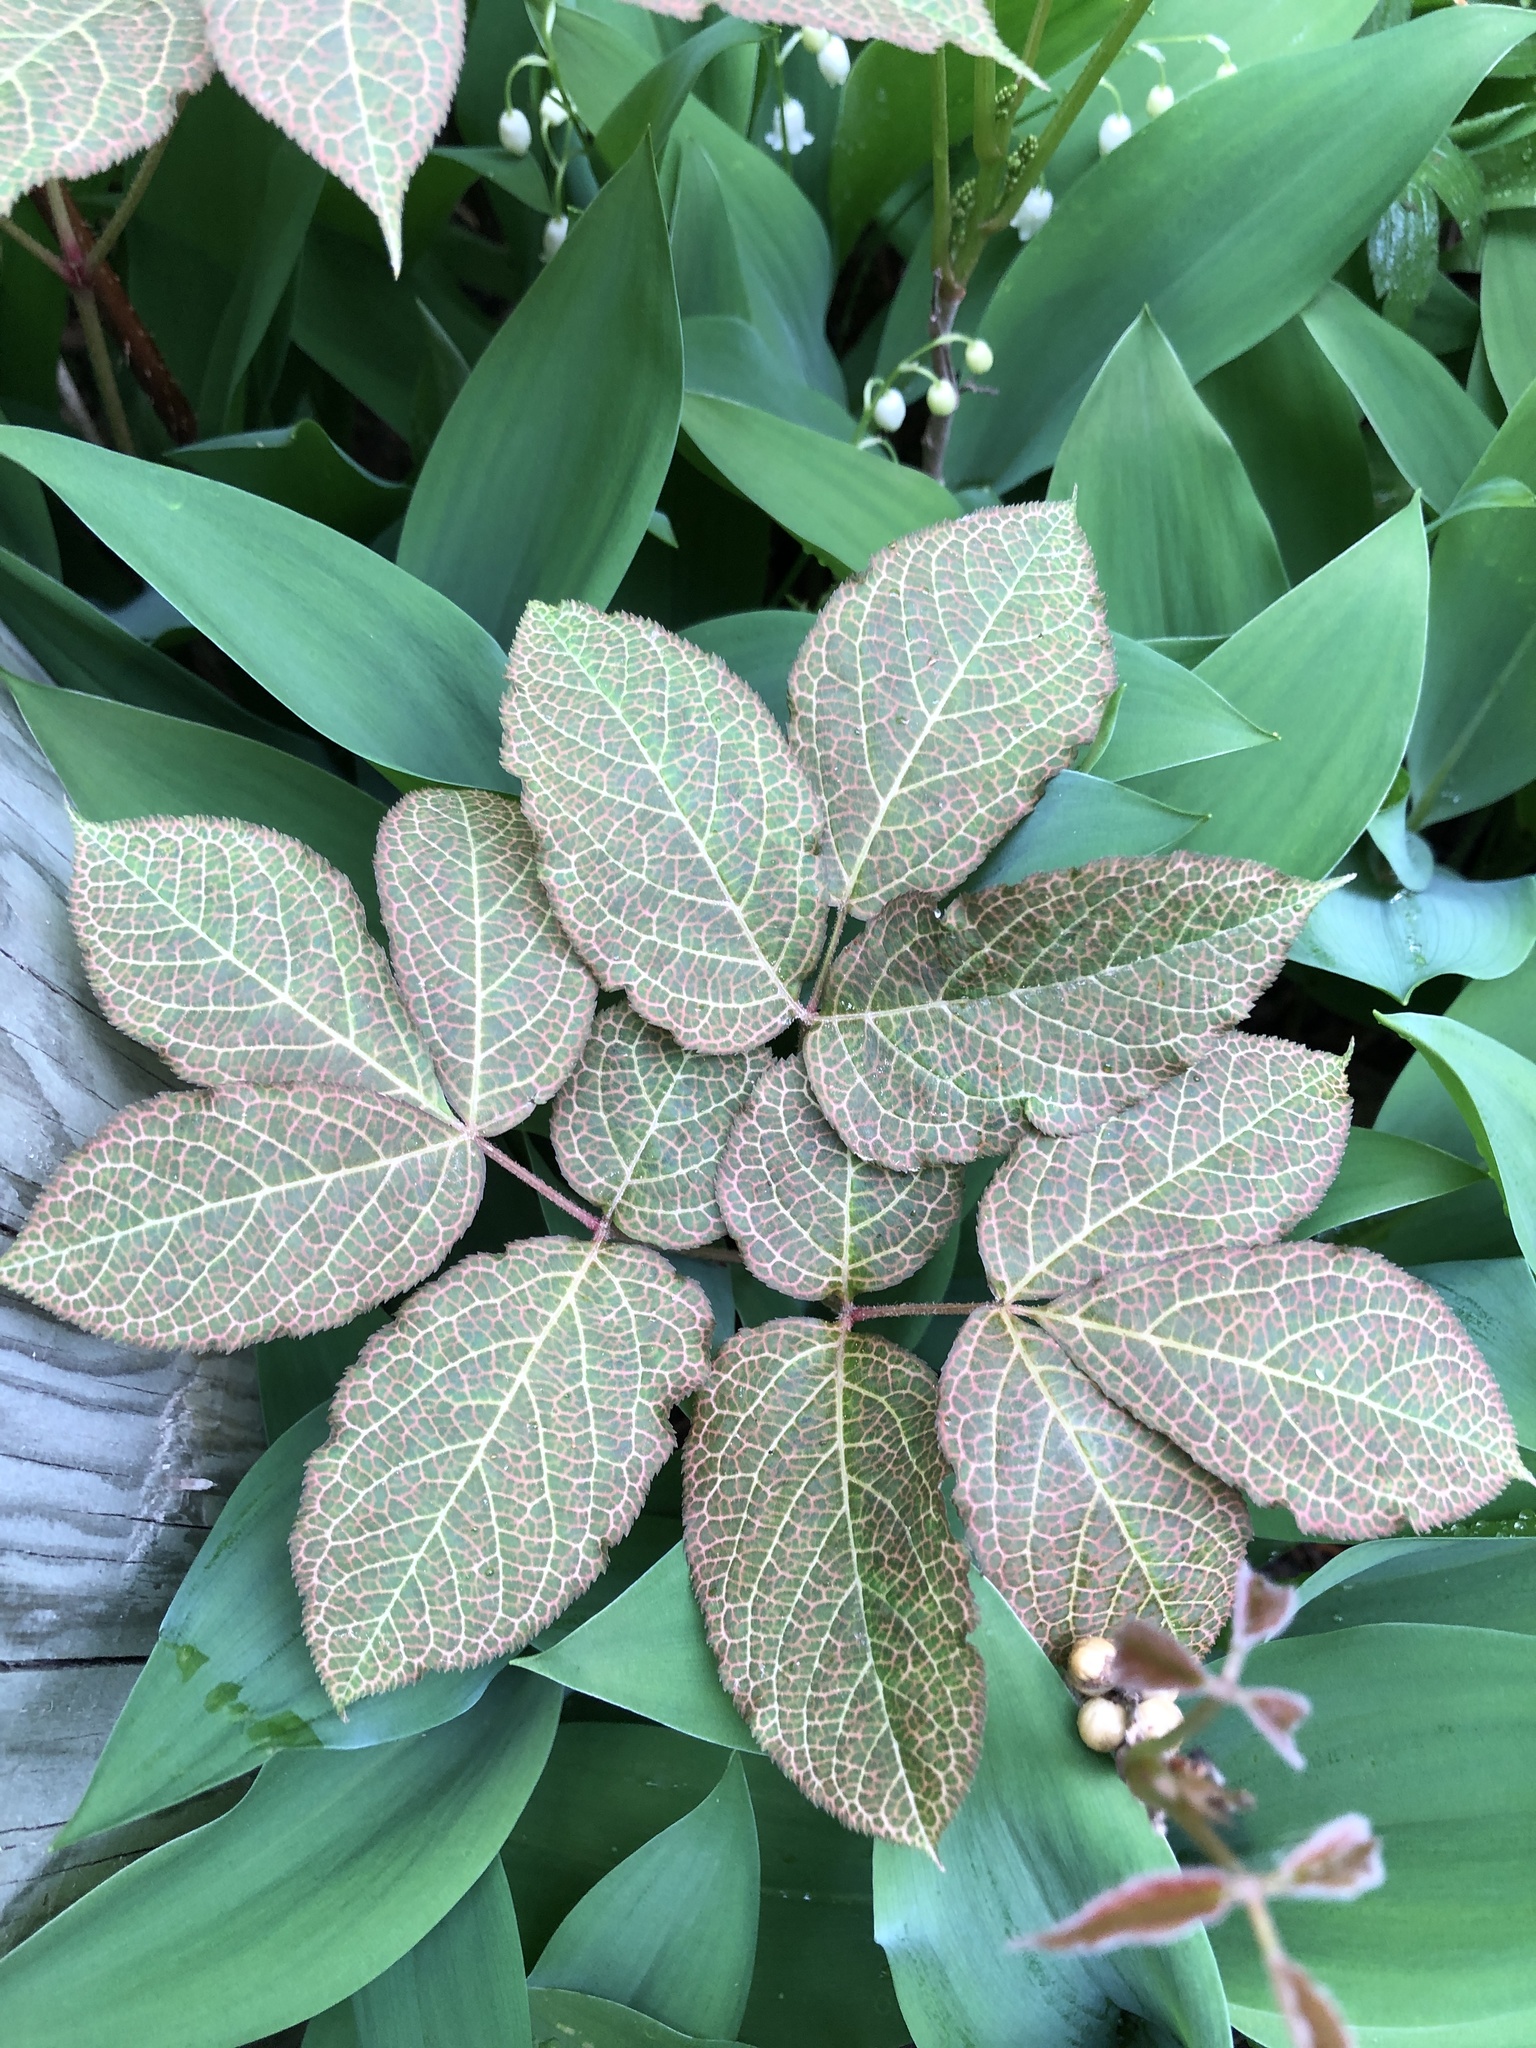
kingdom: Plantae
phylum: Tracheophyta
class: Magnoliopsida
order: Apiales
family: Araliaceae
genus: Aralia
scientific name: Aralia nudicaulis
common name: Wild sarsaparilla
